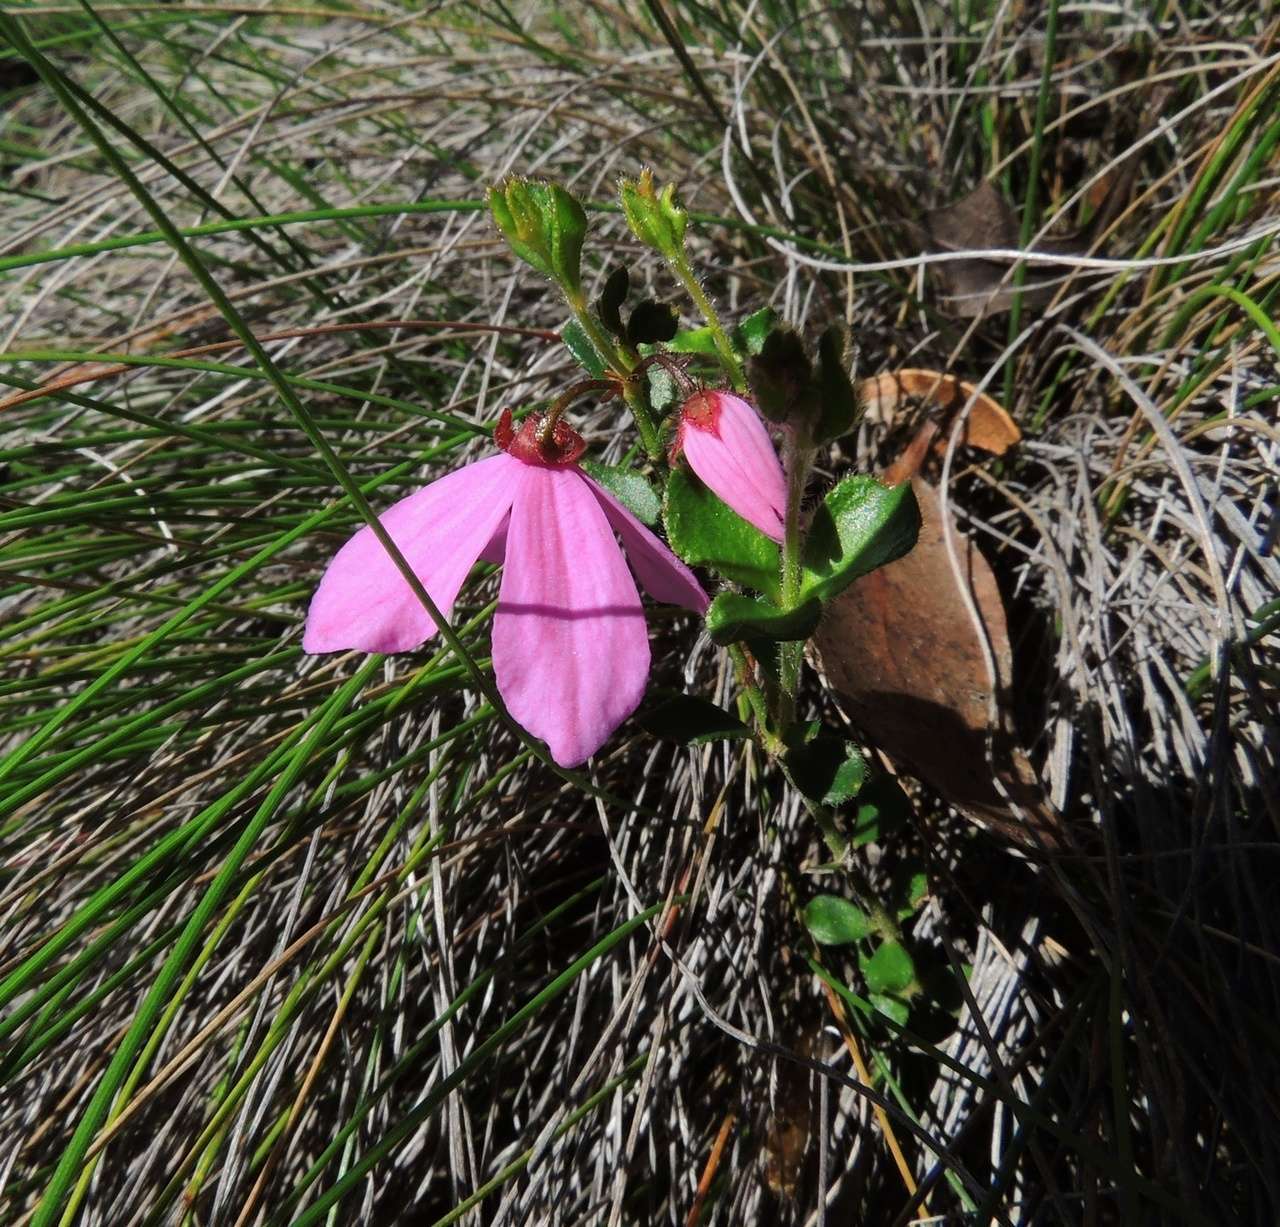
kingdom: Plantae
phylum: Tracheophyta
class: Magnoliopsida
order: Oxalidales
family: Elaeocarpaceae
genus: Tetratheca
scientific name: Tetratheca ciliata
